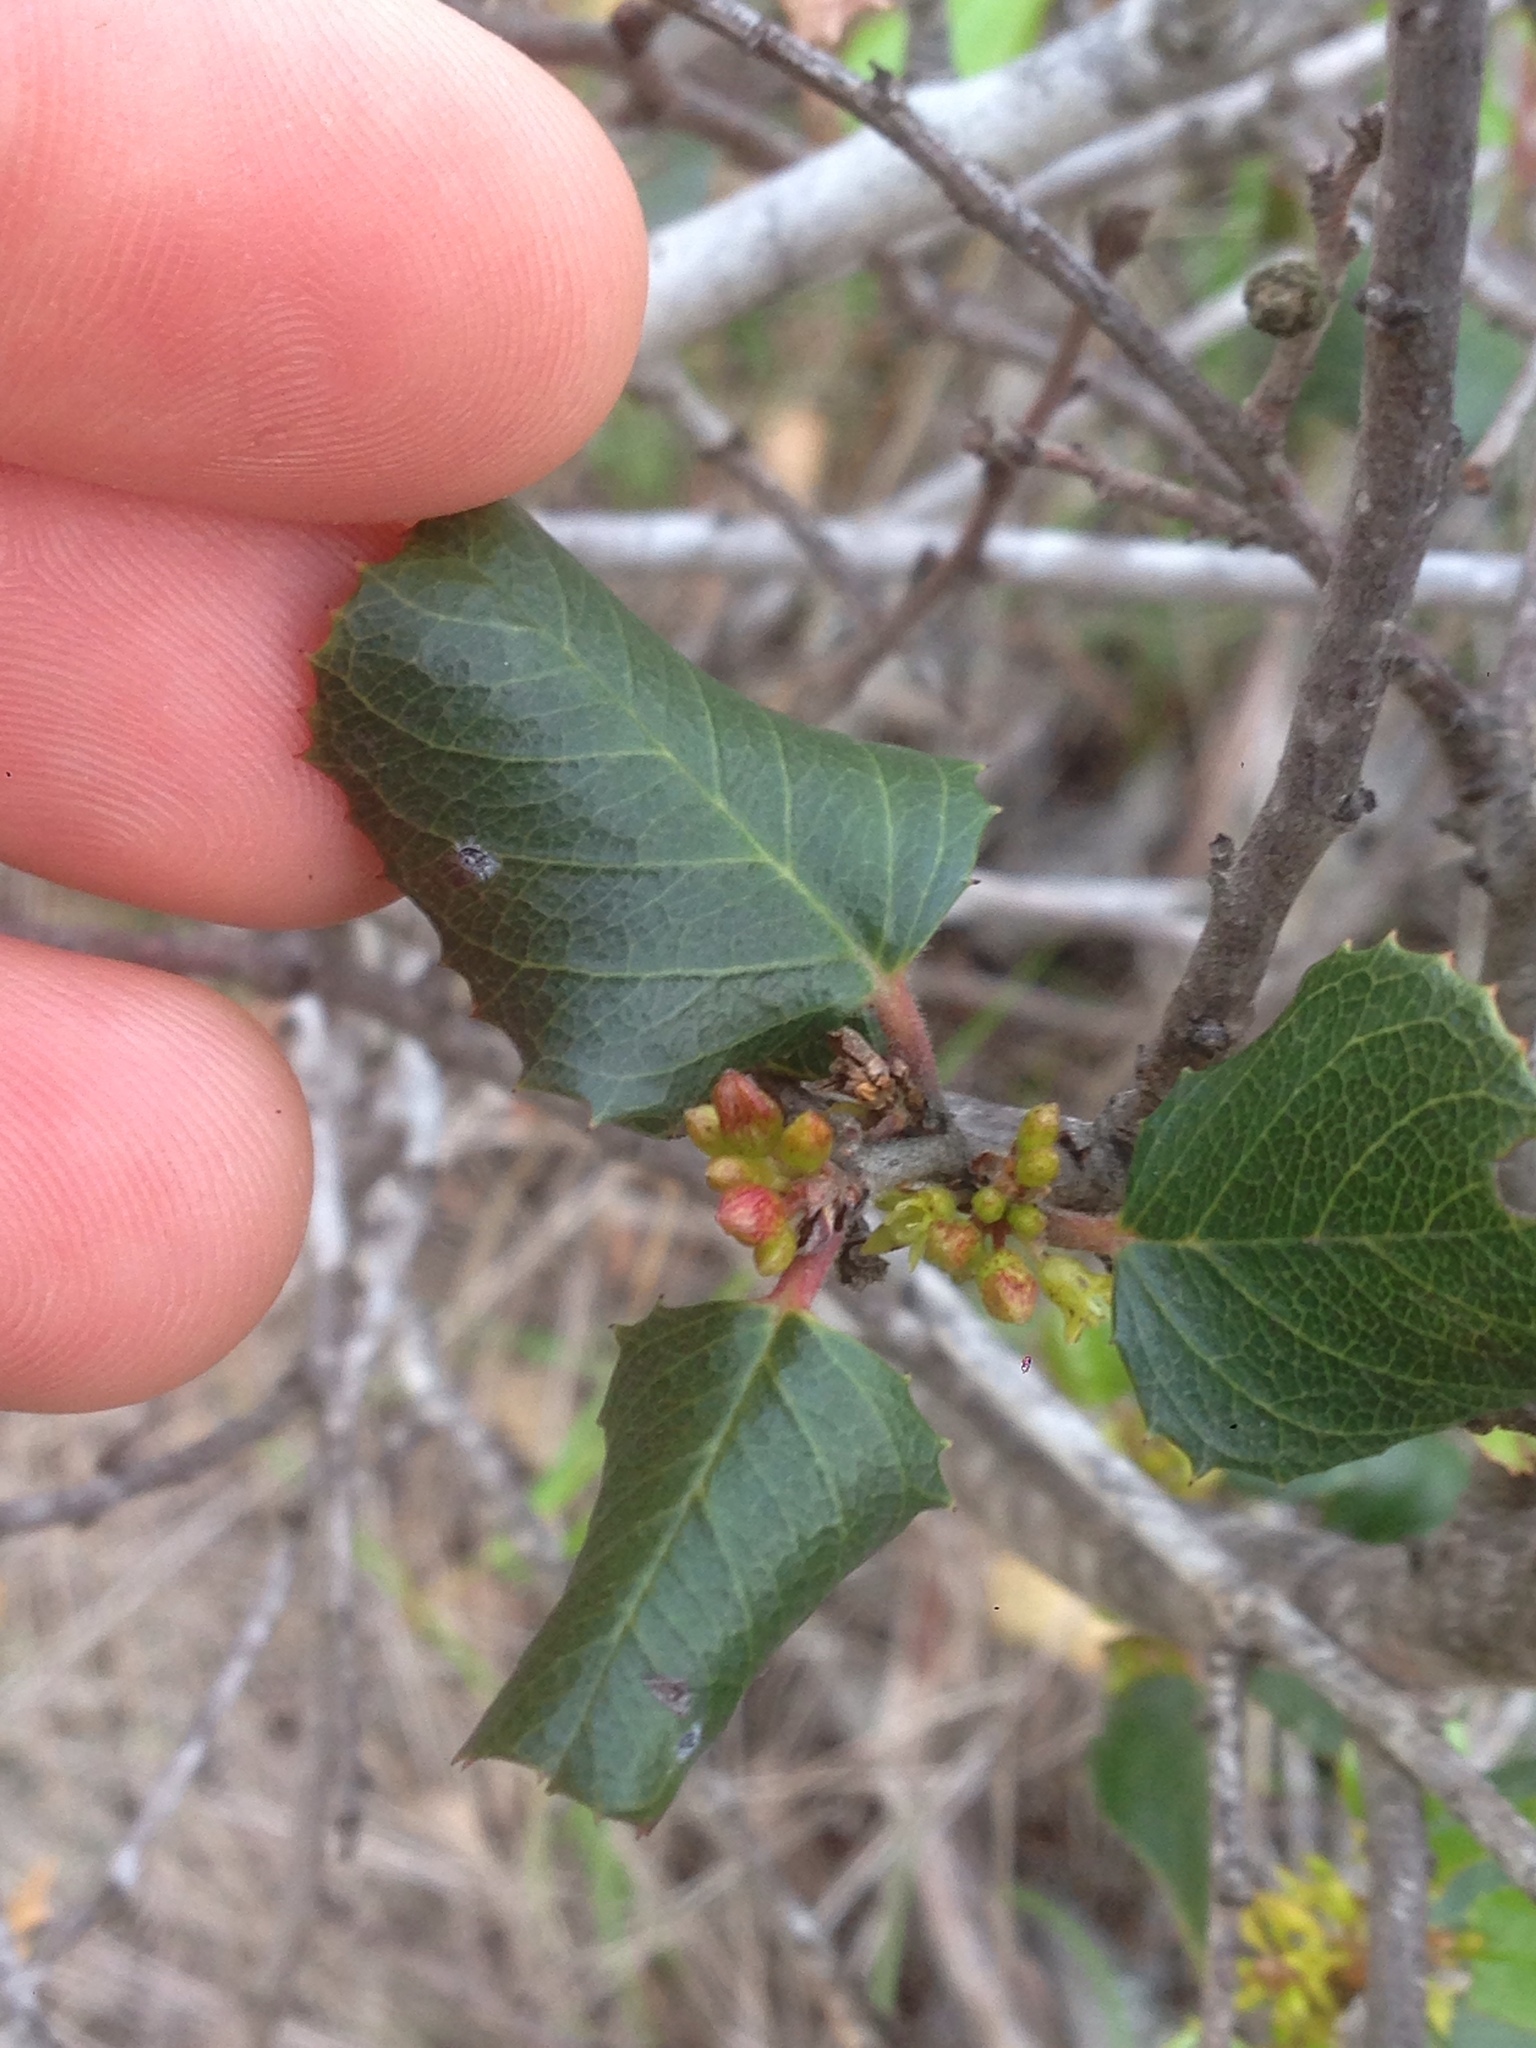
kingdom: Plantae
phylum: Tracheophyta
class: Magnoliopsida
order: Rosales
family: Rhamnaceae
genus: Endotropis
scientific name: Endotropis crocea
